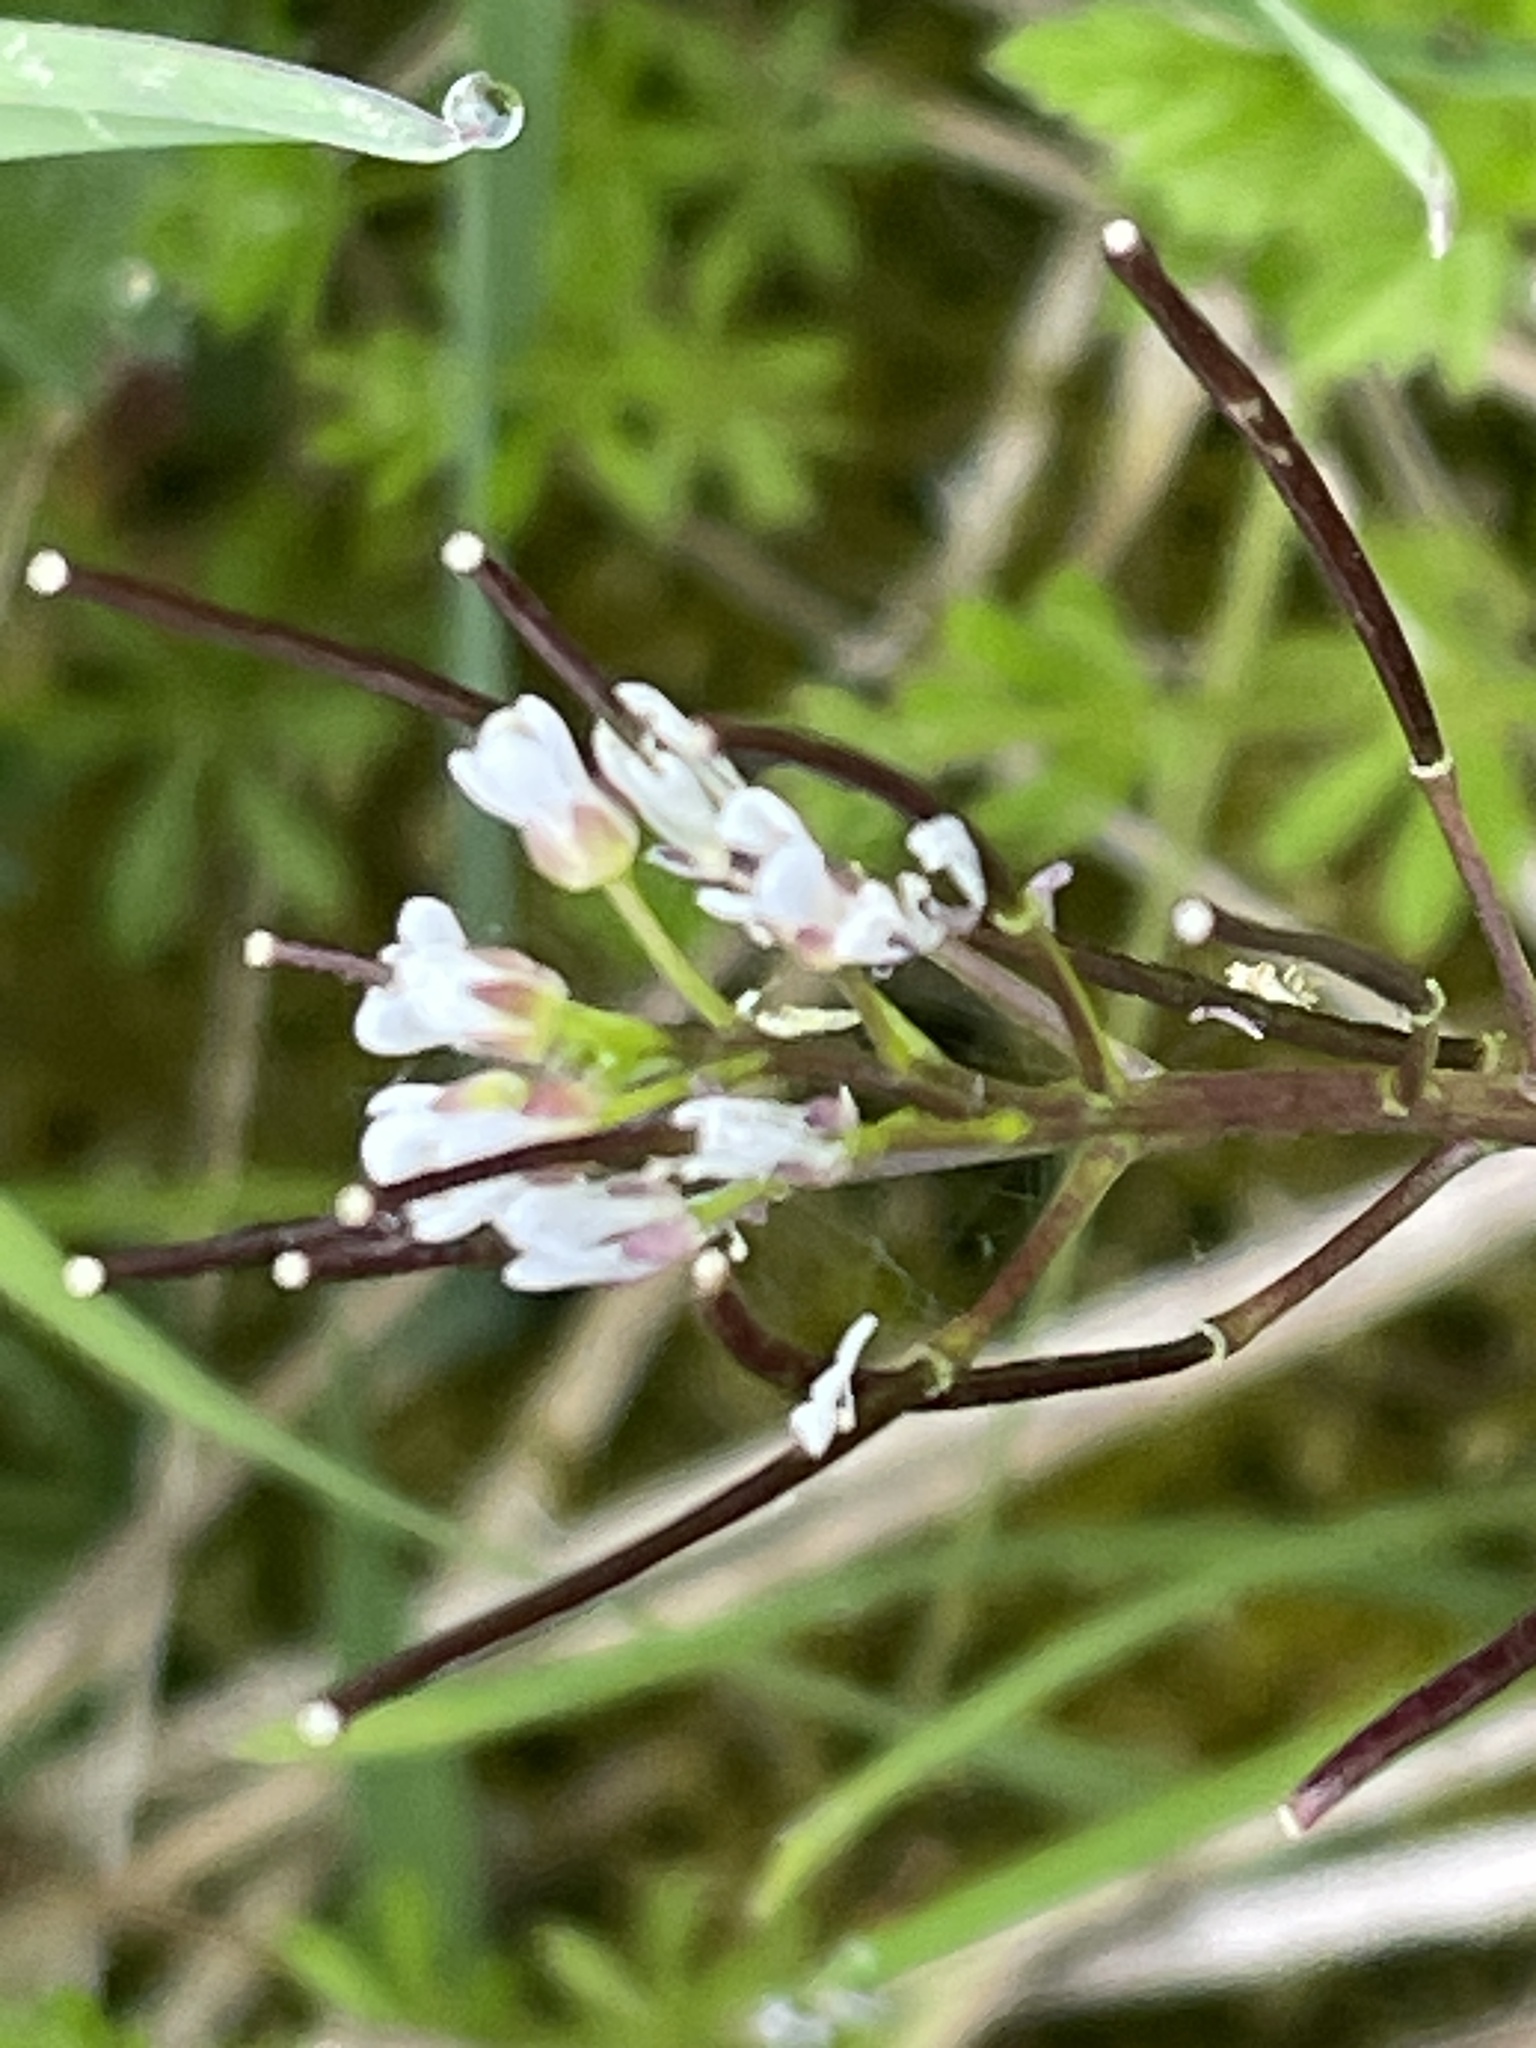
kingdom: Plantae
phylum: Tracheophyta
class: Magnoliopsida
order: Brassicales
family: Brassicaceae
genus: Cardamine
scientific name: Cardamine flexuosa
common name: Woodland bittercress
